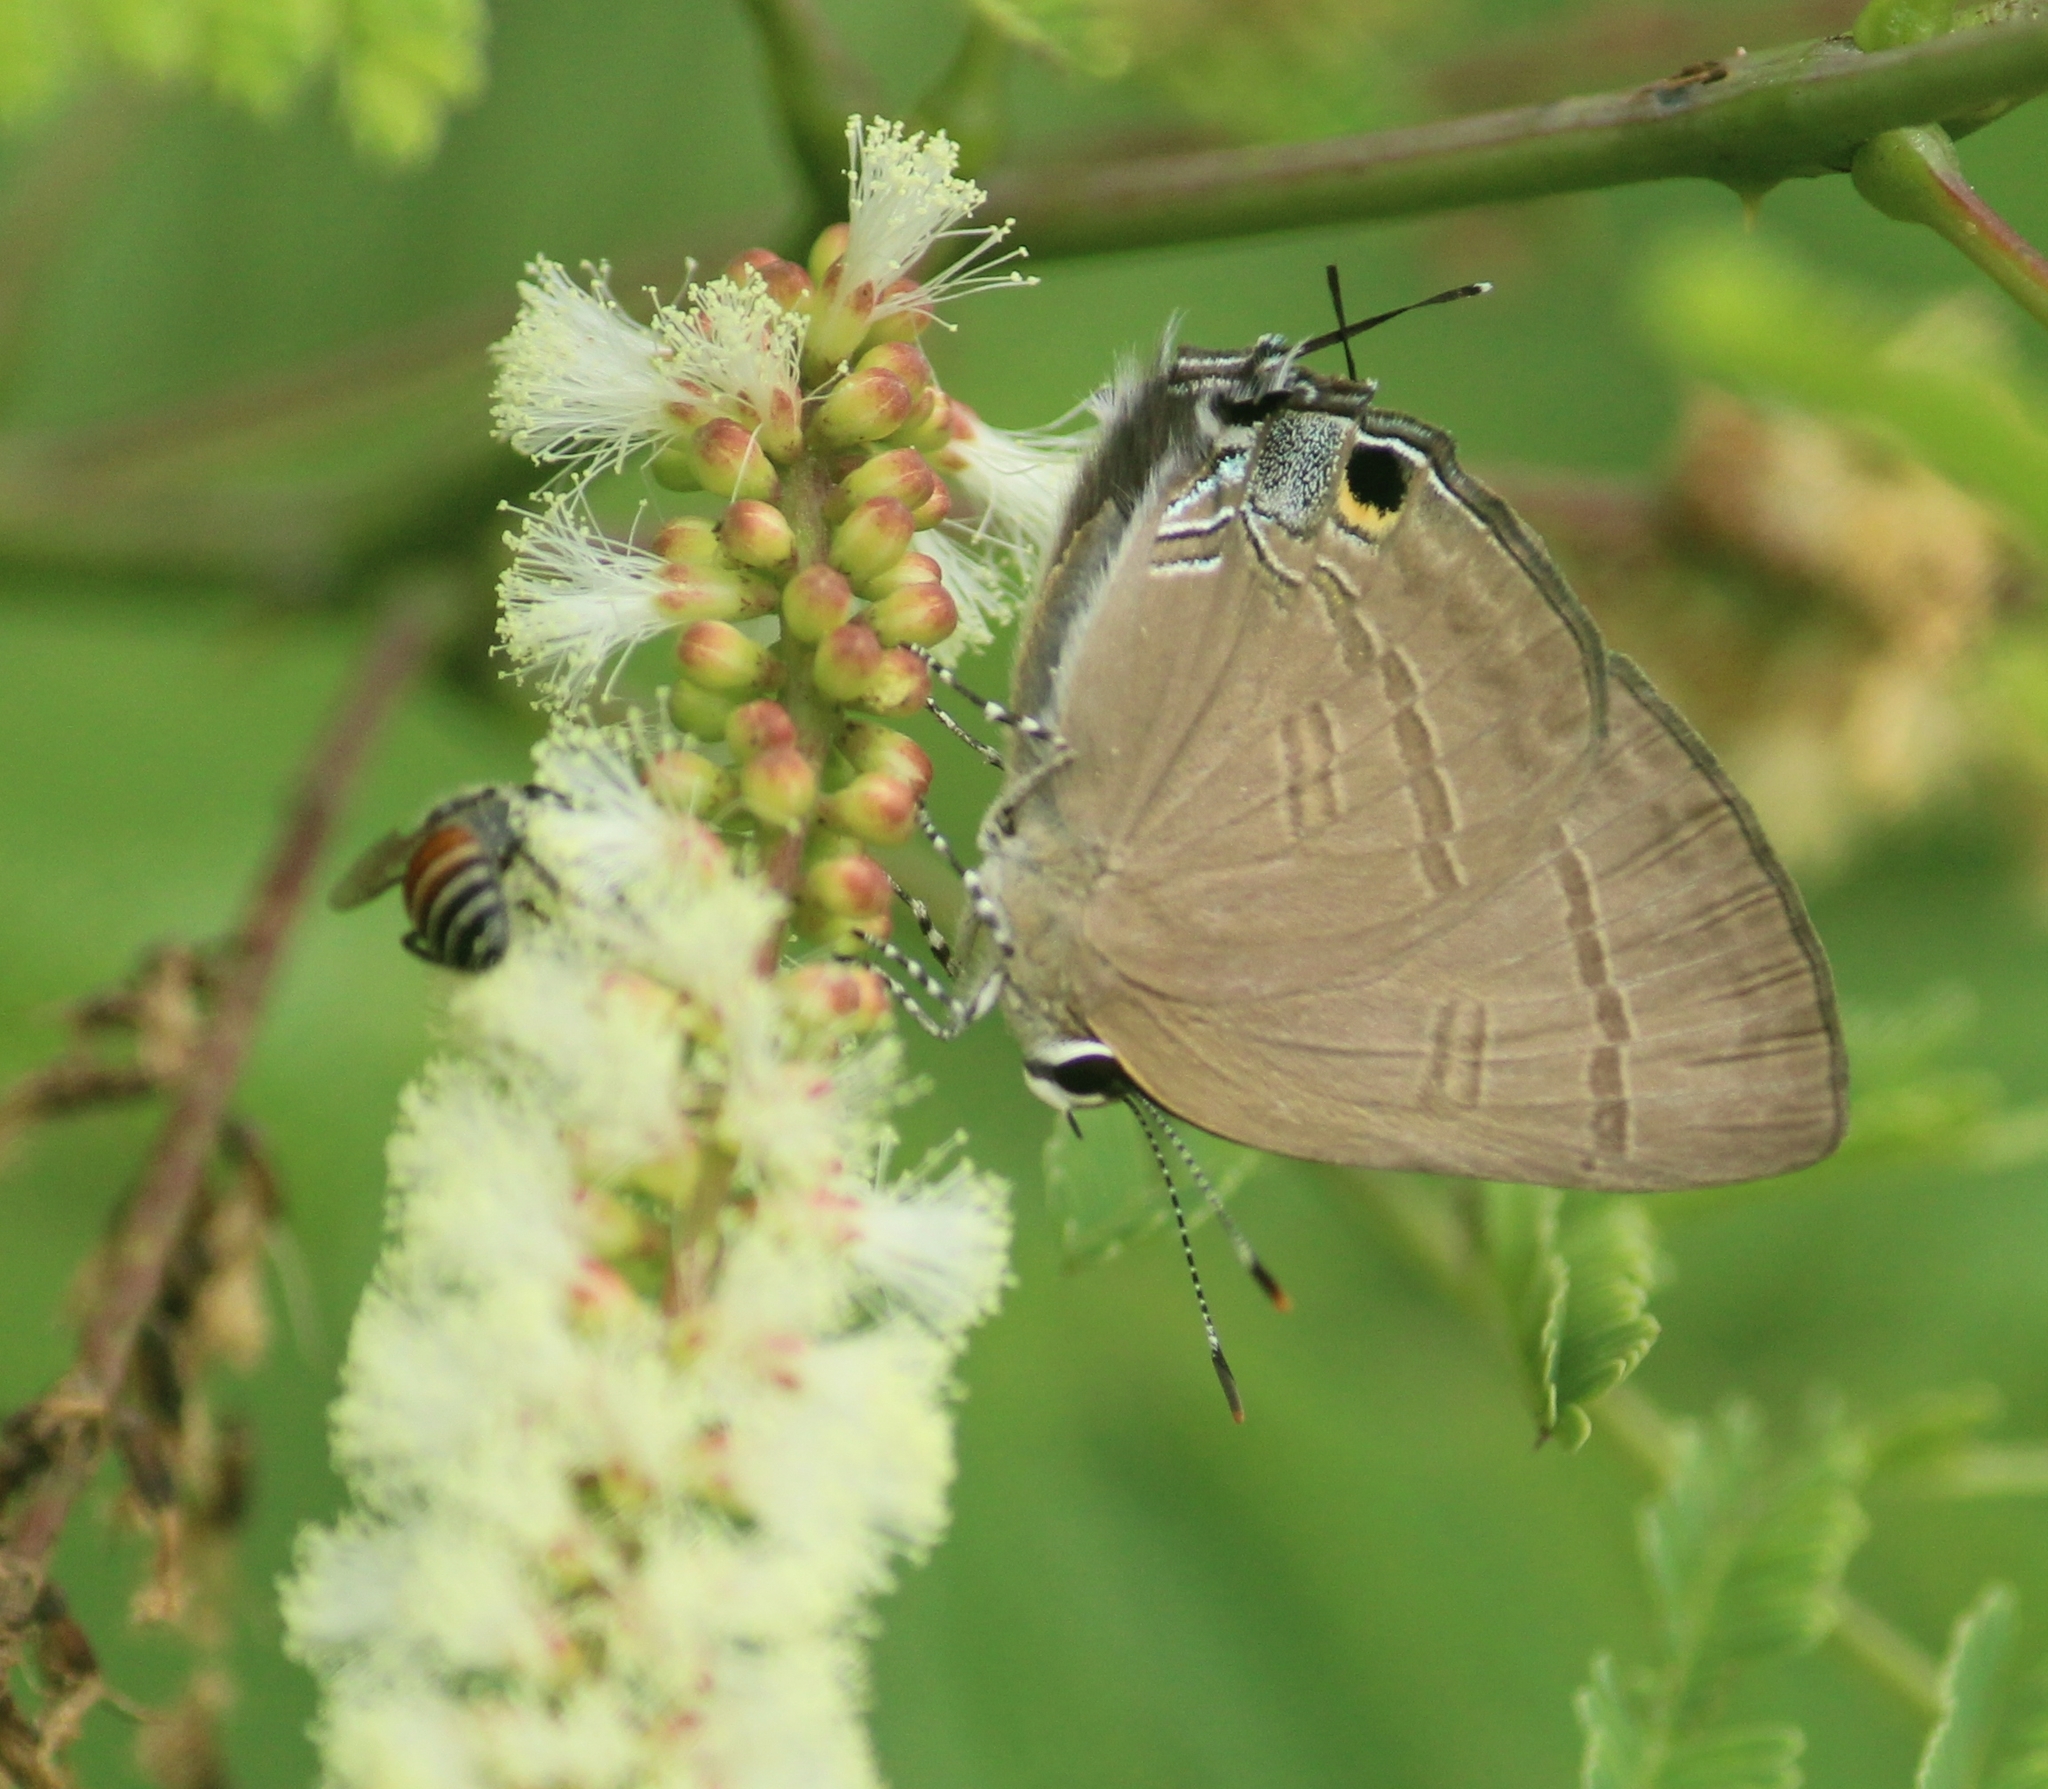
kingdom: Animalia
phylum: Arthropoda
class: Insecta
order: Lepidoptera
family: Lycaenidae
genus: Rapala
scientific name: Rapala manea
